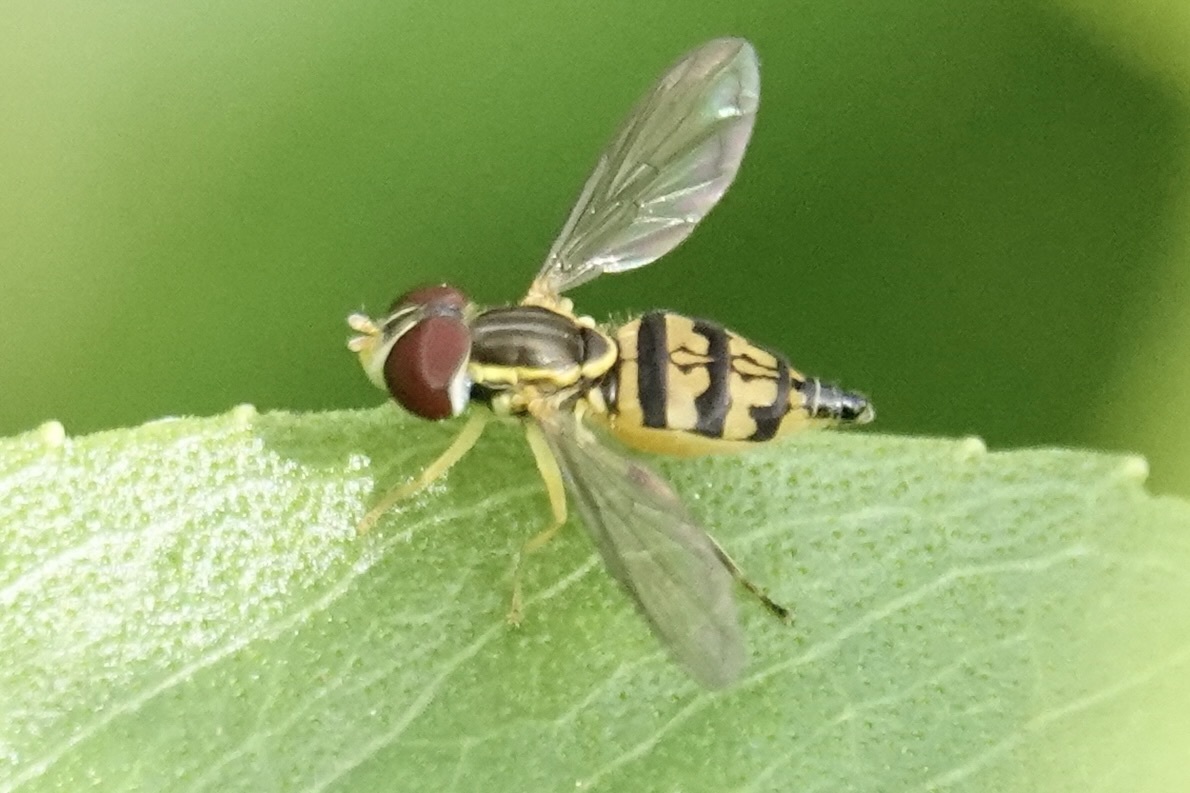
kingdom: Animalia
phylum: Arthropoda
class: Insecta
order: Diptera
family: Syrphidae
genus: Toxomerus
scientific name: Toxomerus geminatus
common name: Eastern calligrapher
